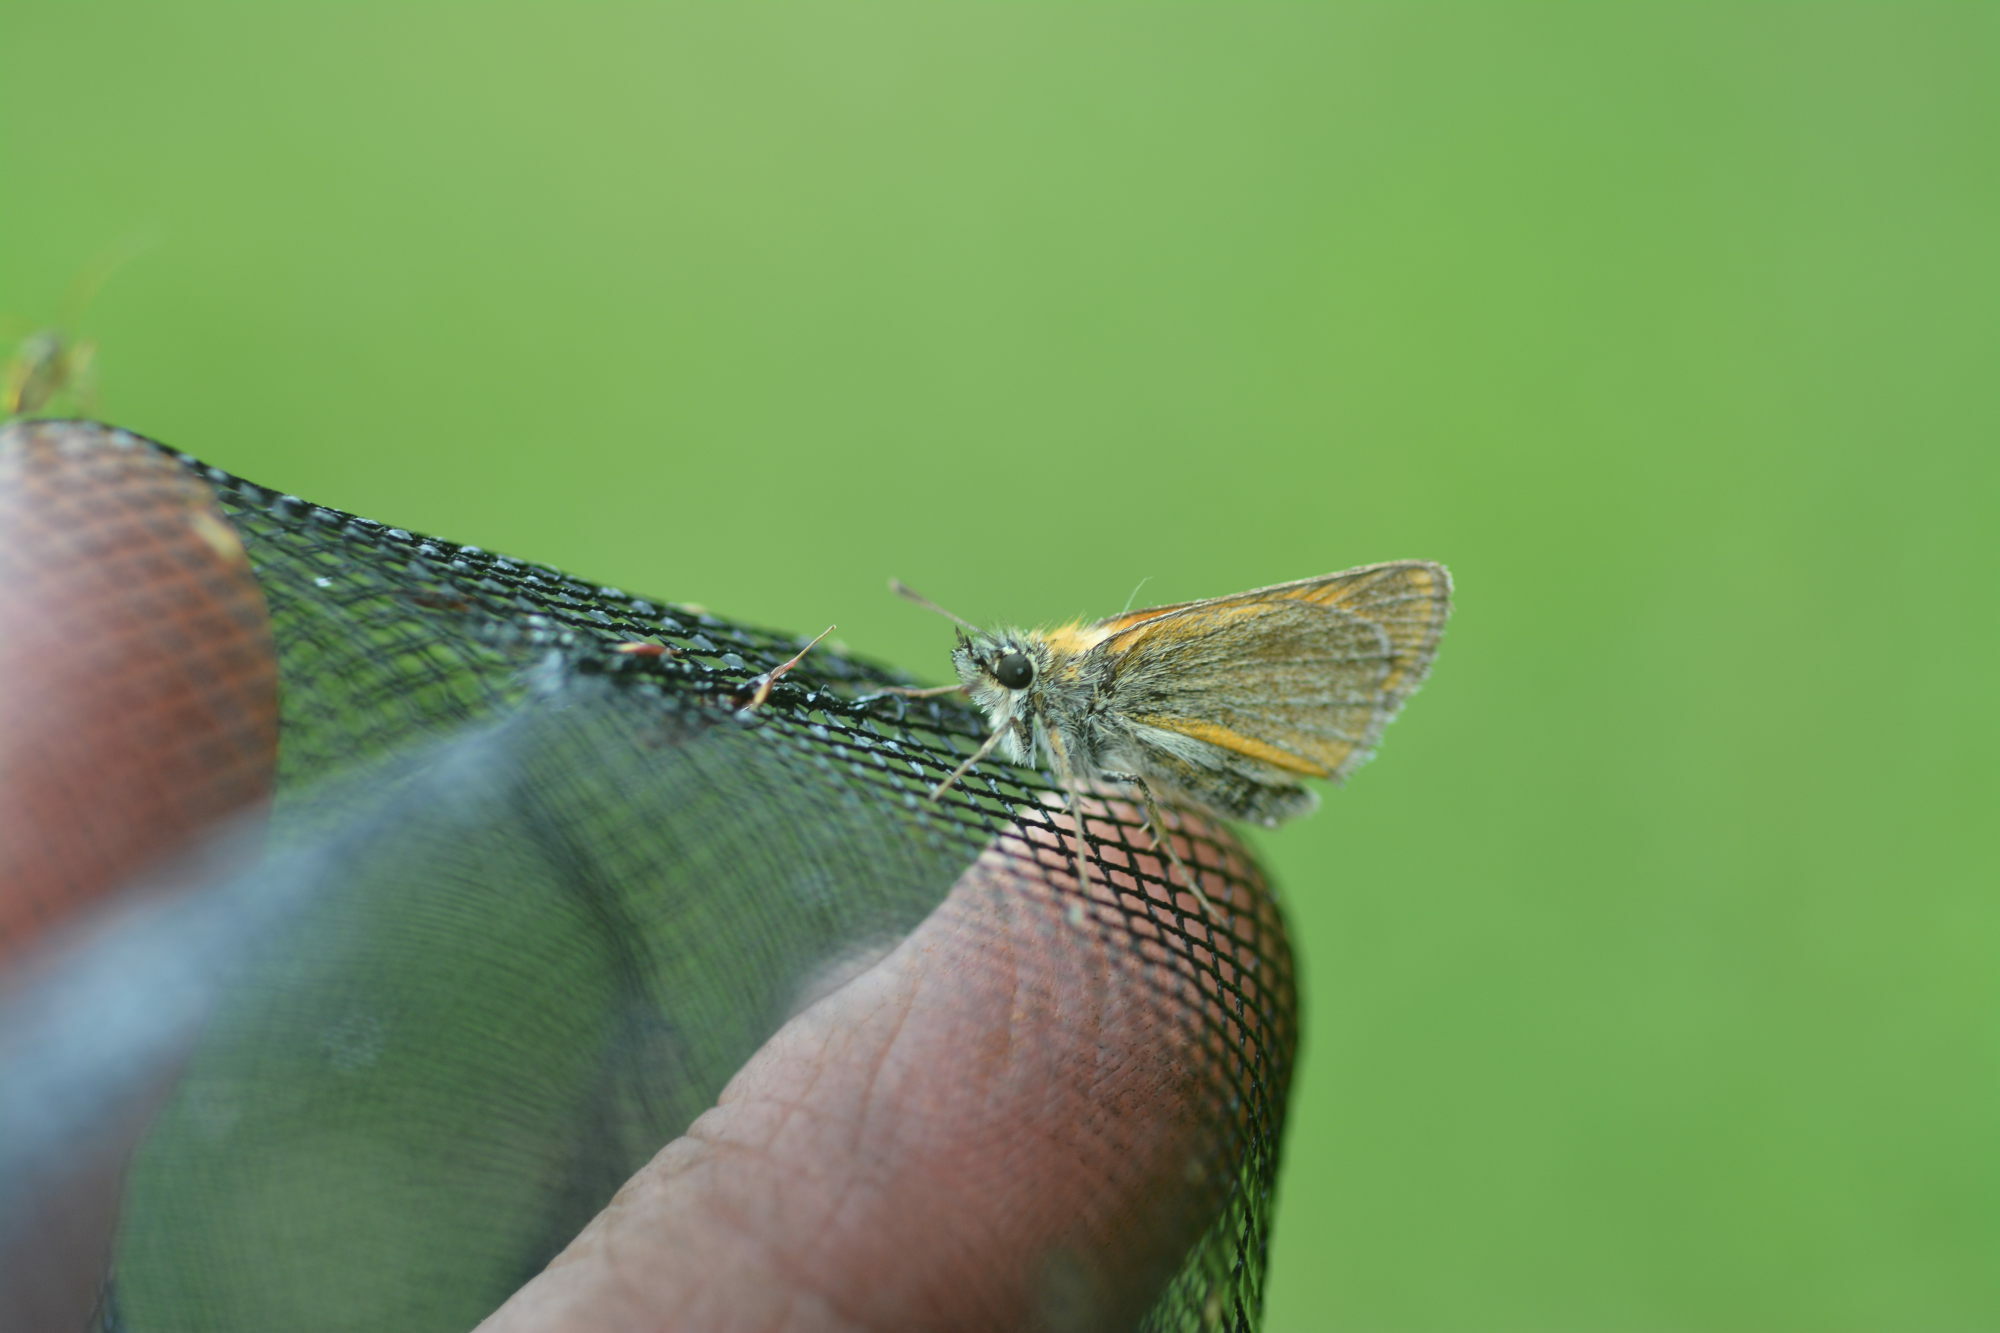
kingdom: Animalia
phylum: Arthropoda
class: Insecta
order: Lepidoptera
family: Hesperiidae
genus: Thymelicus
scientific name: Thymelicus sylvestris
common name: Small skipper
